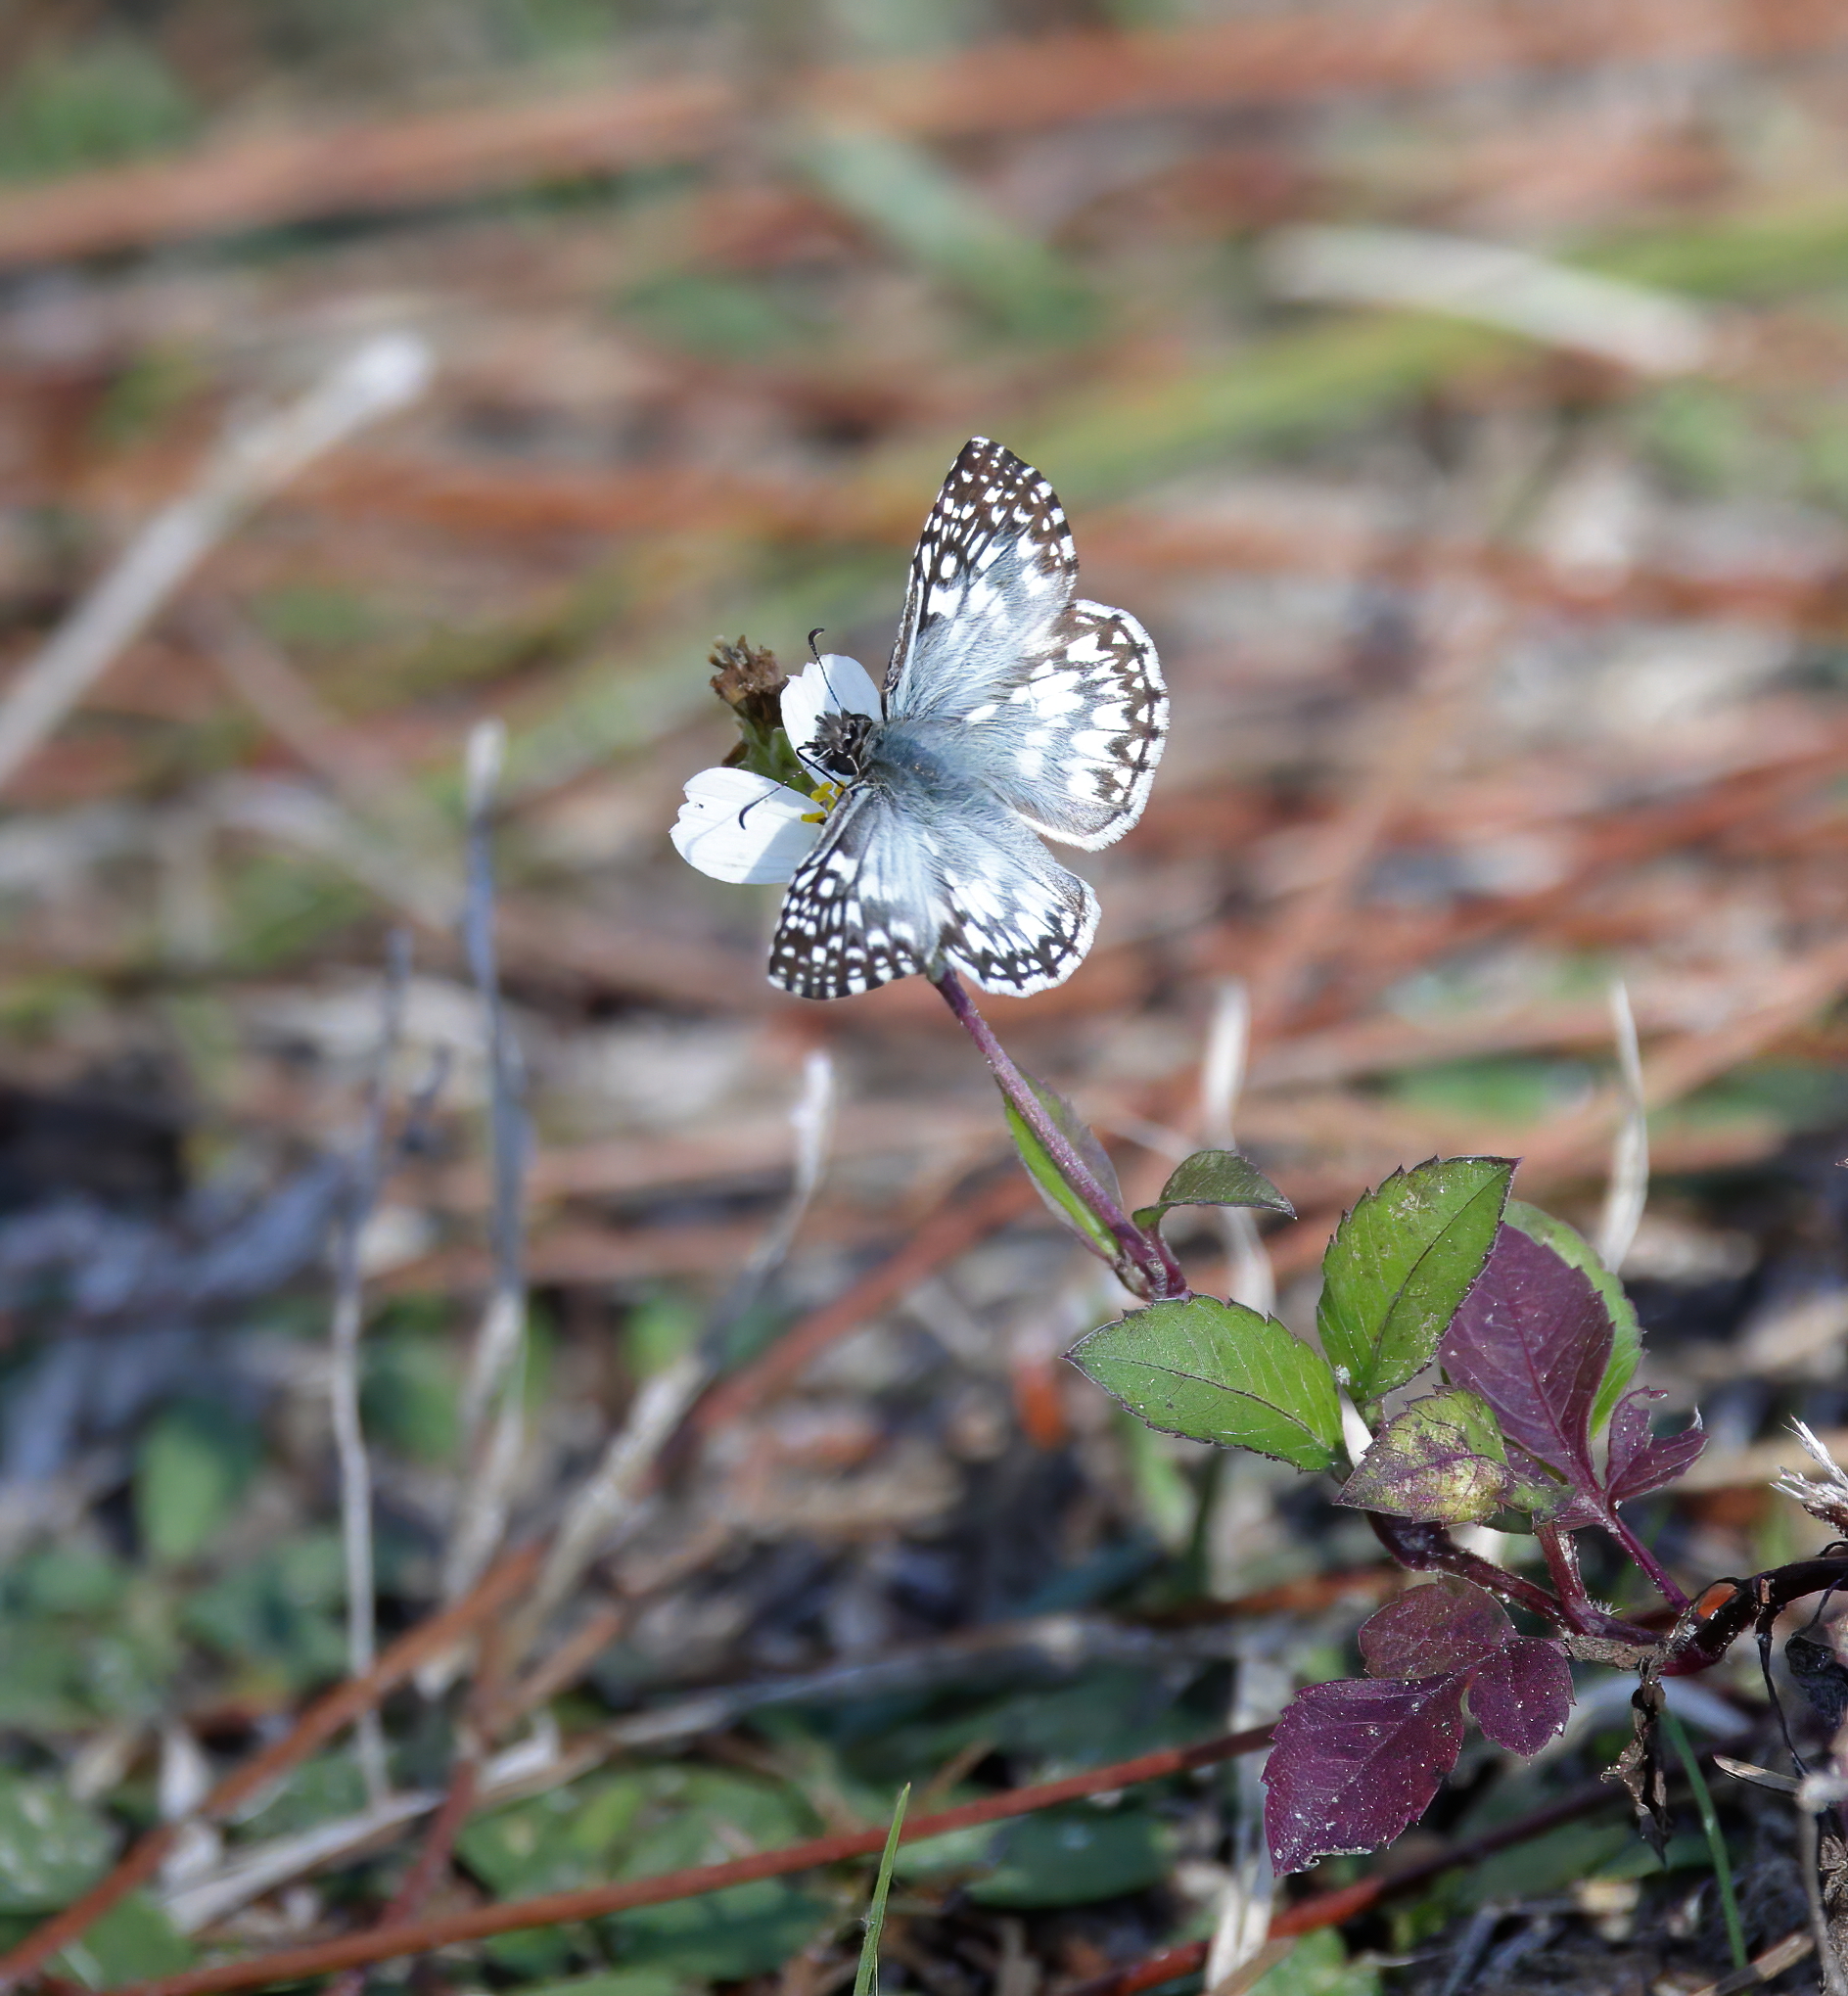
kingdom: Animalia
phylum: Arthropoda
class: Insecta
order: Lepidoptera
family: Hesperiidae
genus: Pyrgus
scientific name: Pyrgus oileus
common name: Tropical checkered-skipper
